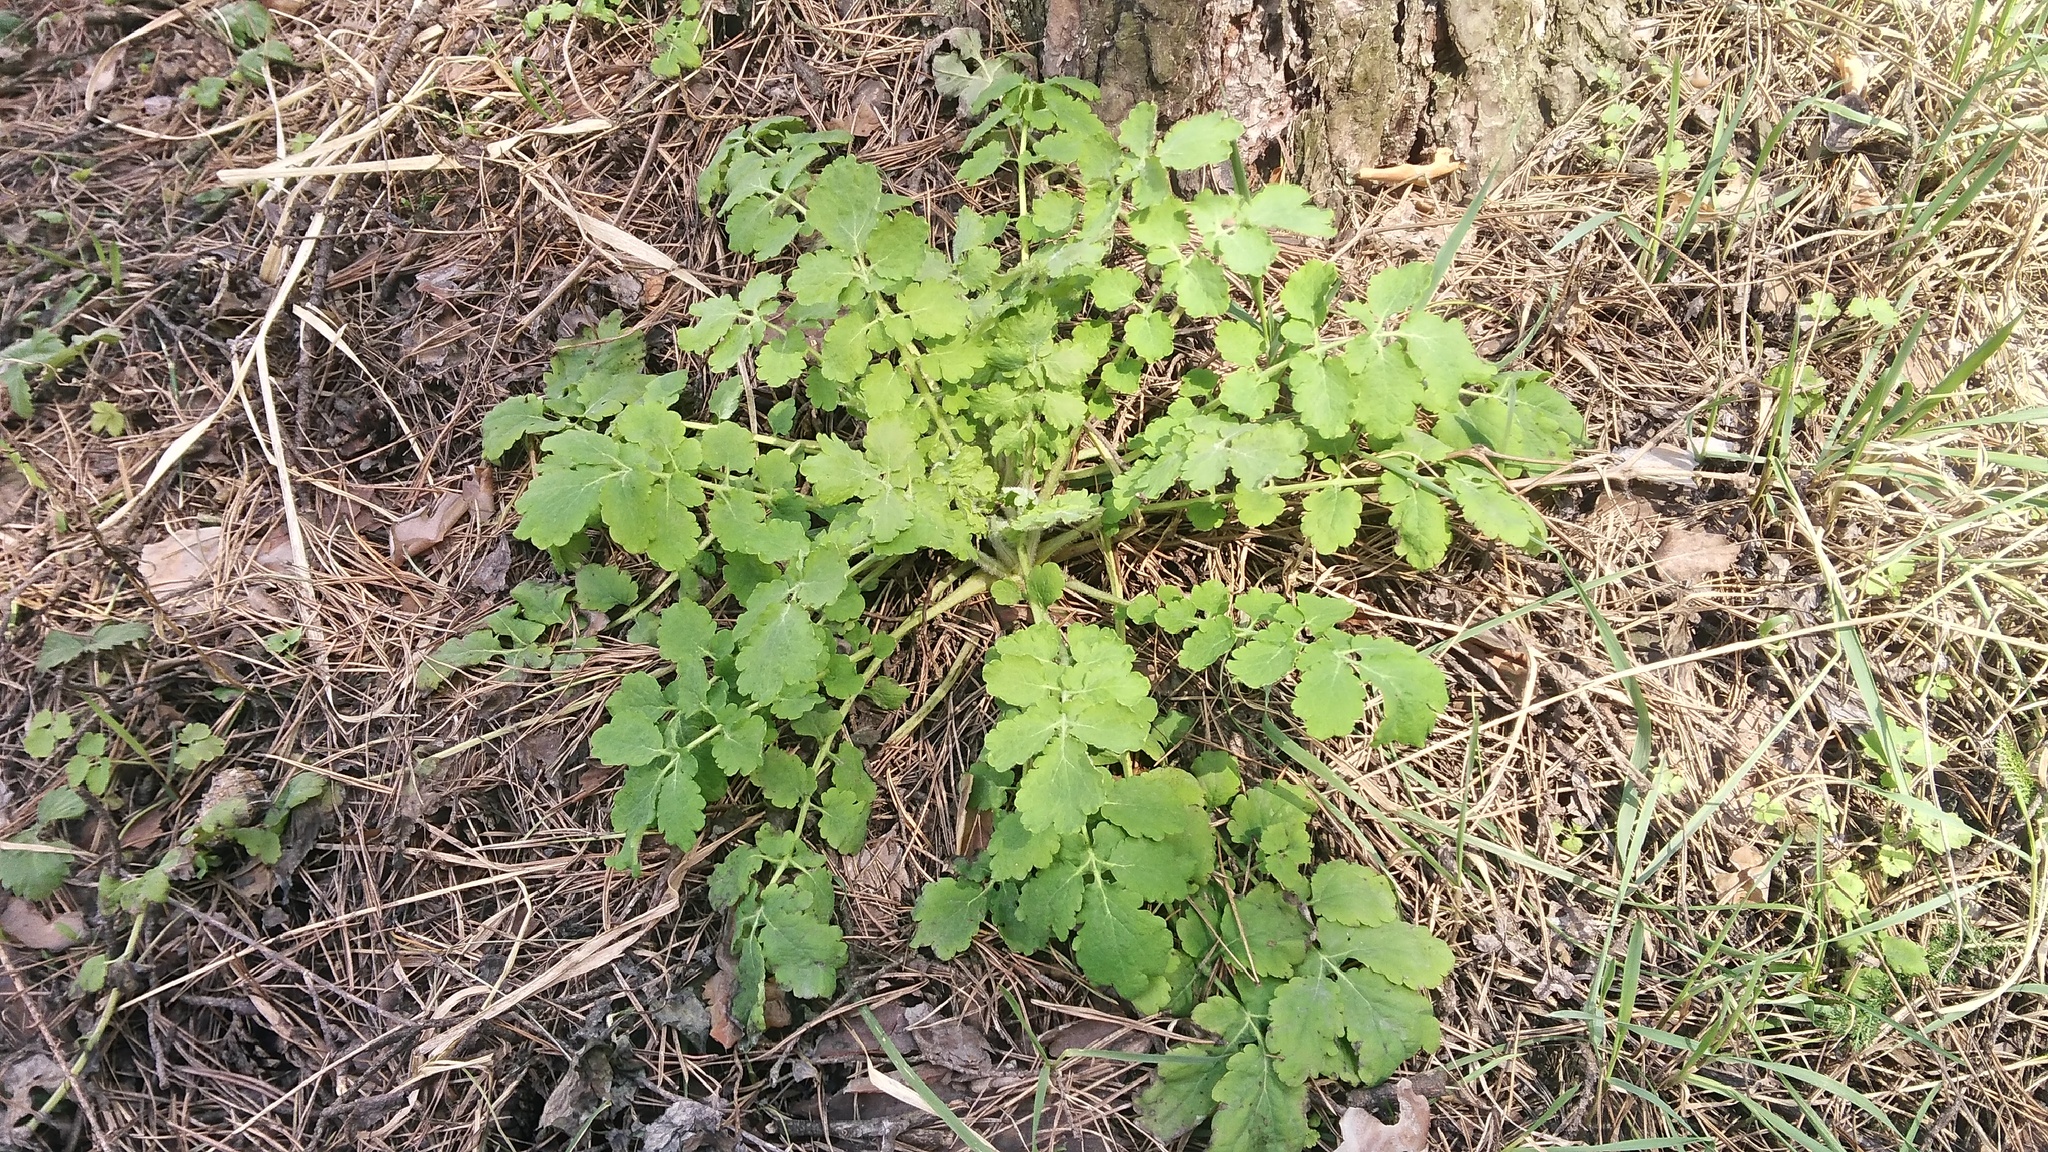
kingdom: Plantae
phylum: Tracheophyta
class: Magnoliopsida
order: Ranunculales
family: Papaveraceae
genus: Chelidonium
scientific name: Chelidonium majus
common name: Greater celandine
